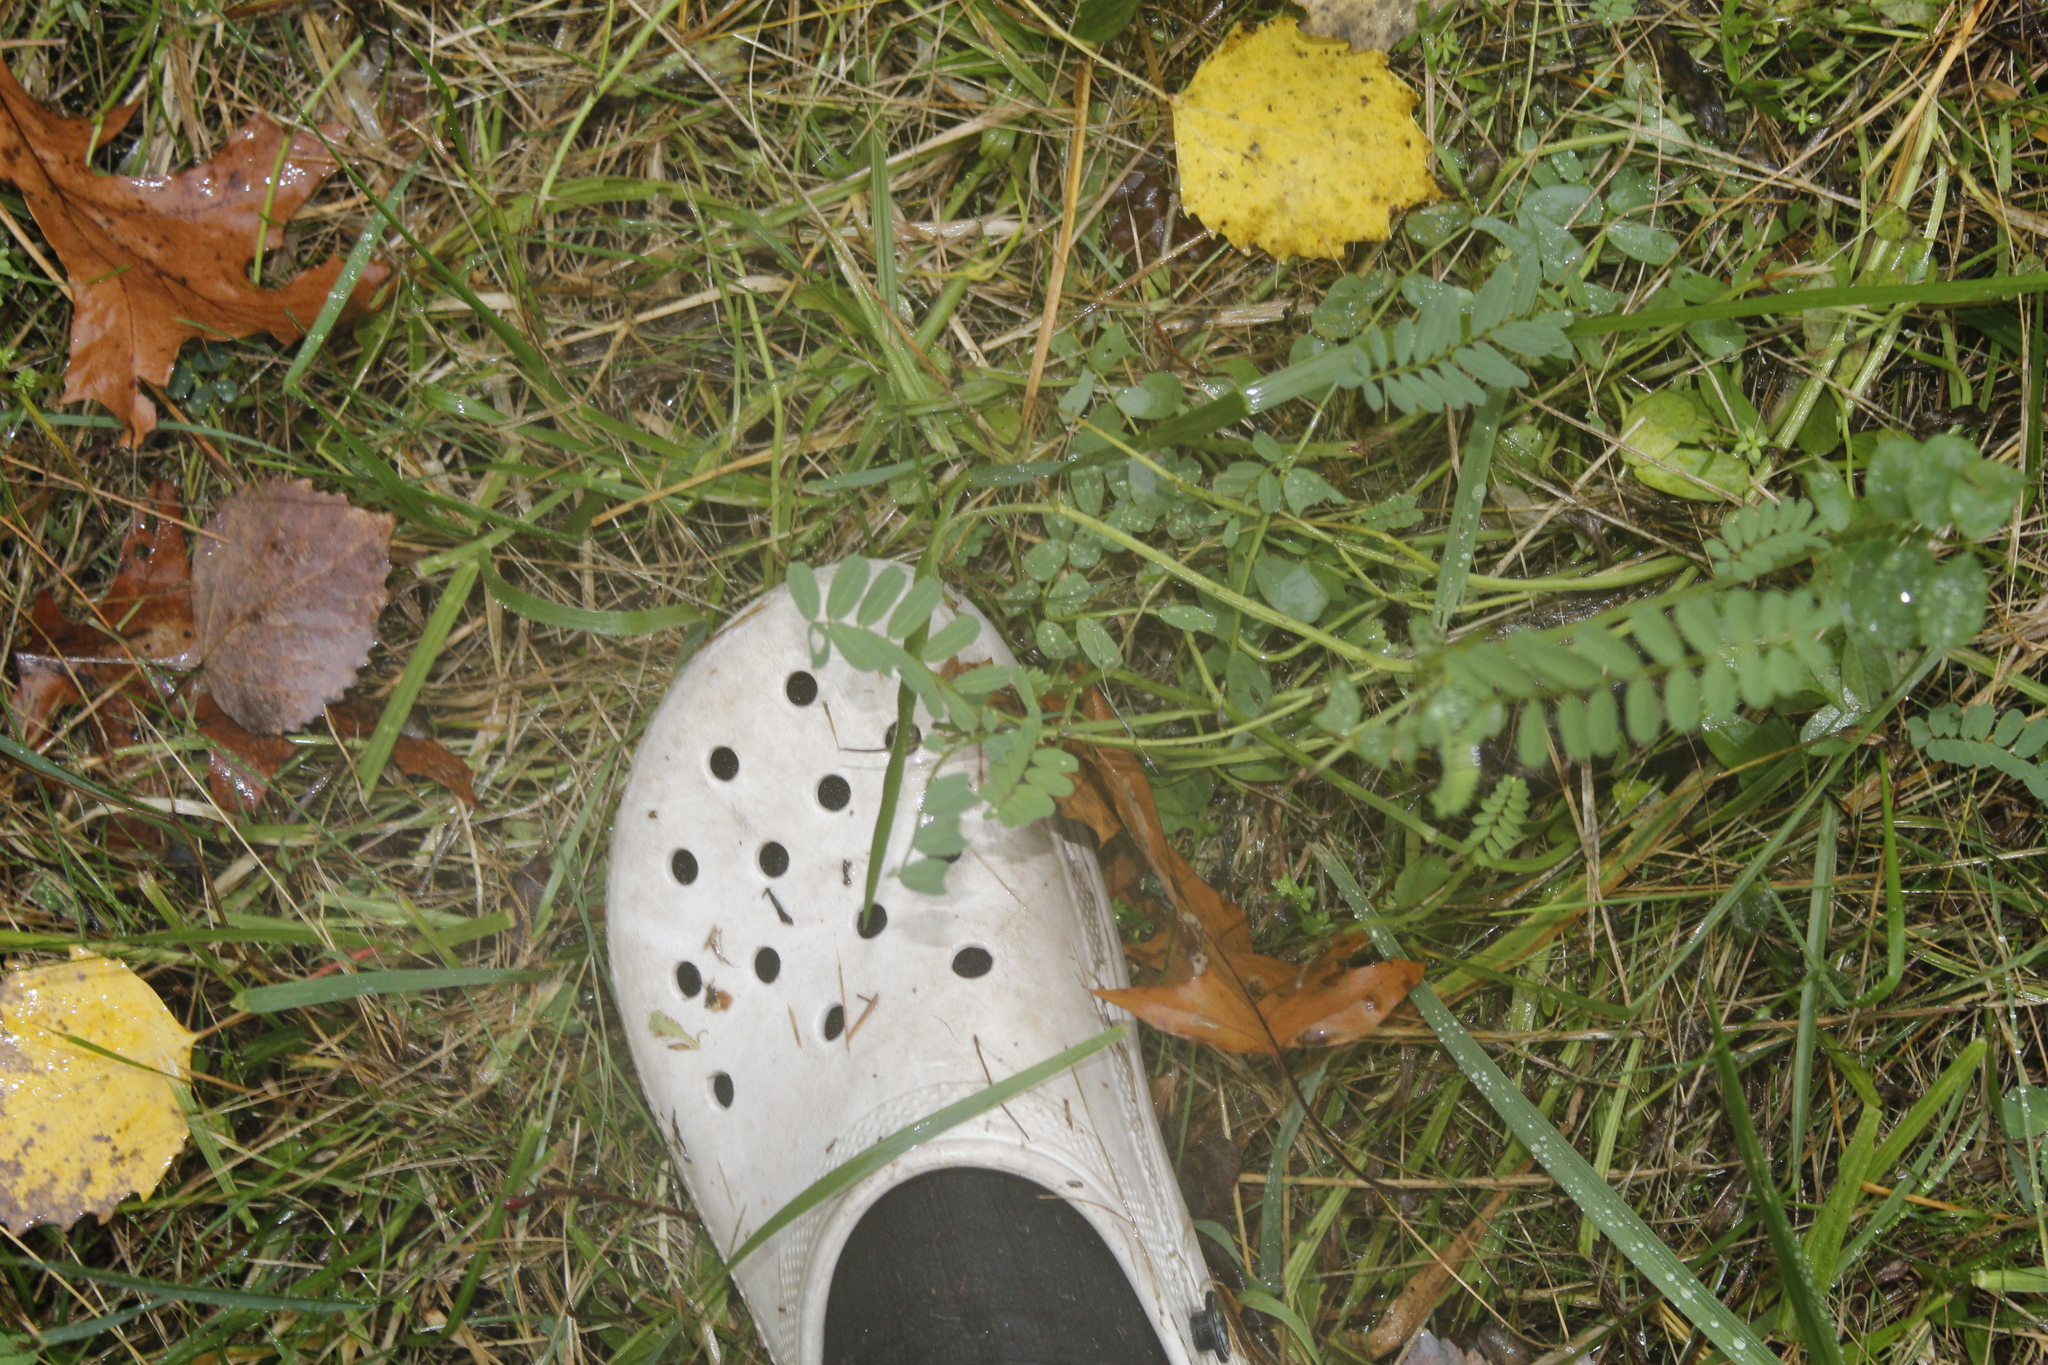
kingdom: Plantae
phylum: Tracheophyta
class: Magnoliopsida
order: Fabales
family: Fabaceae
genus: Coronilla
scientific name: Coronilla varia
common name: Crownvetch
